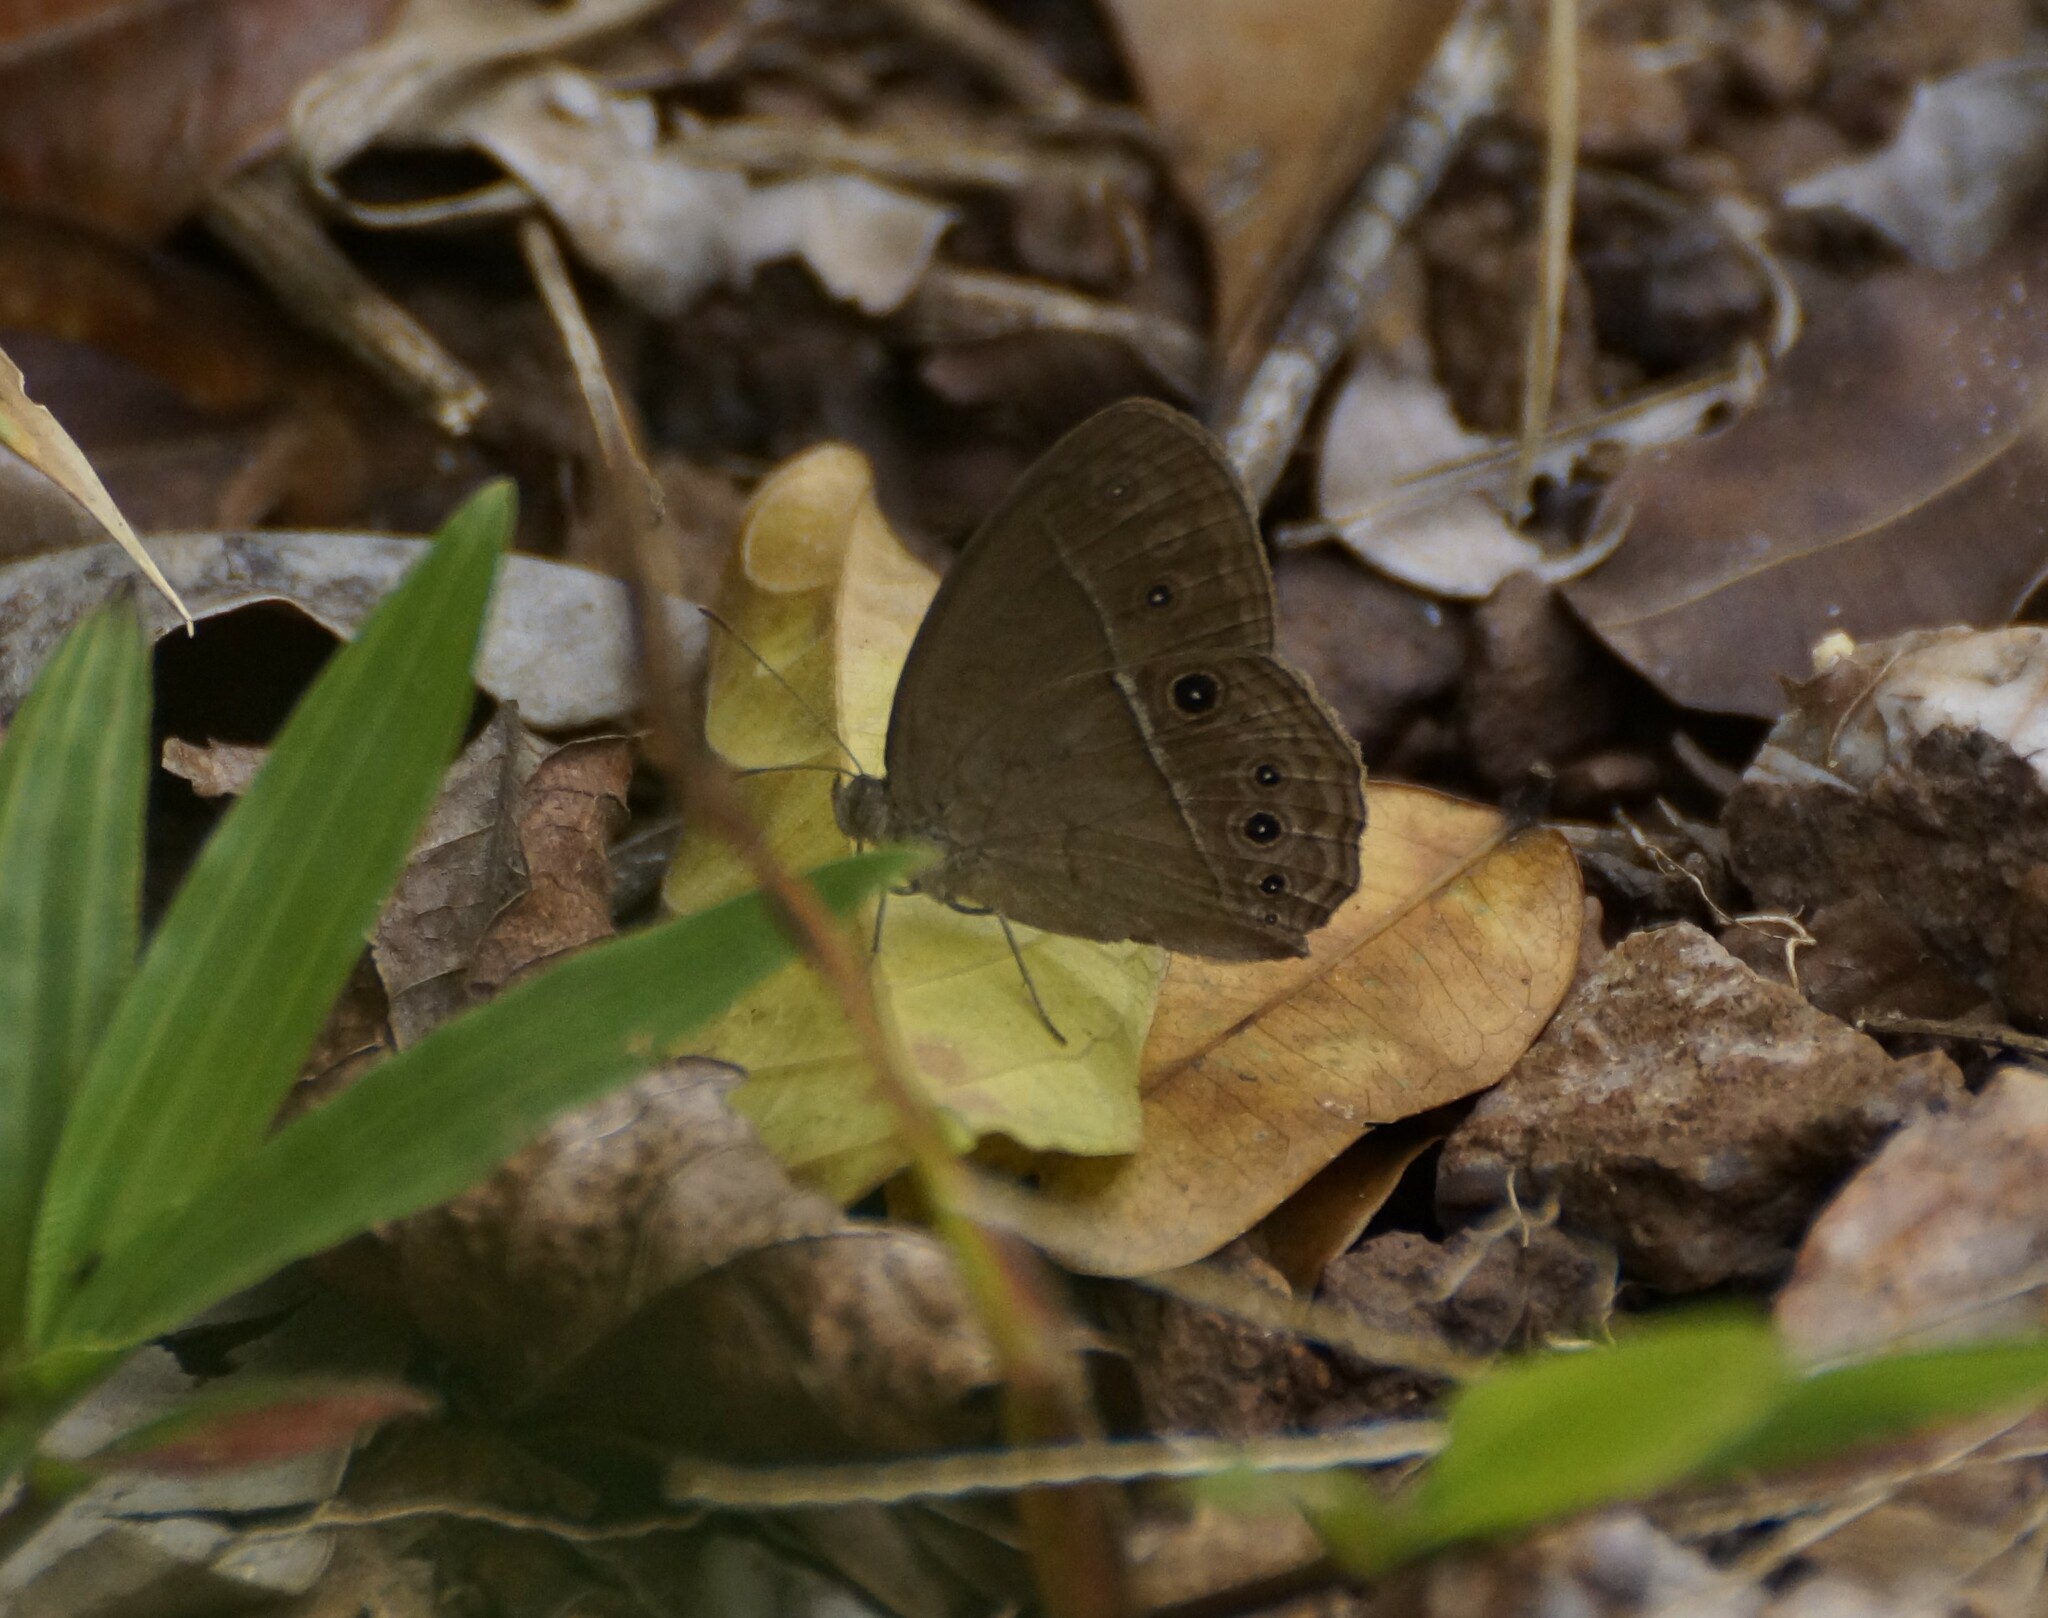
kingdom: Animalia
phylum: Arthropoda
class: Insecta
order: Lepidoptera
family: Nymphalidae
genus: Mycalesis
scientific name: Mycalesis perseus
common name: Dingy bushbrown
